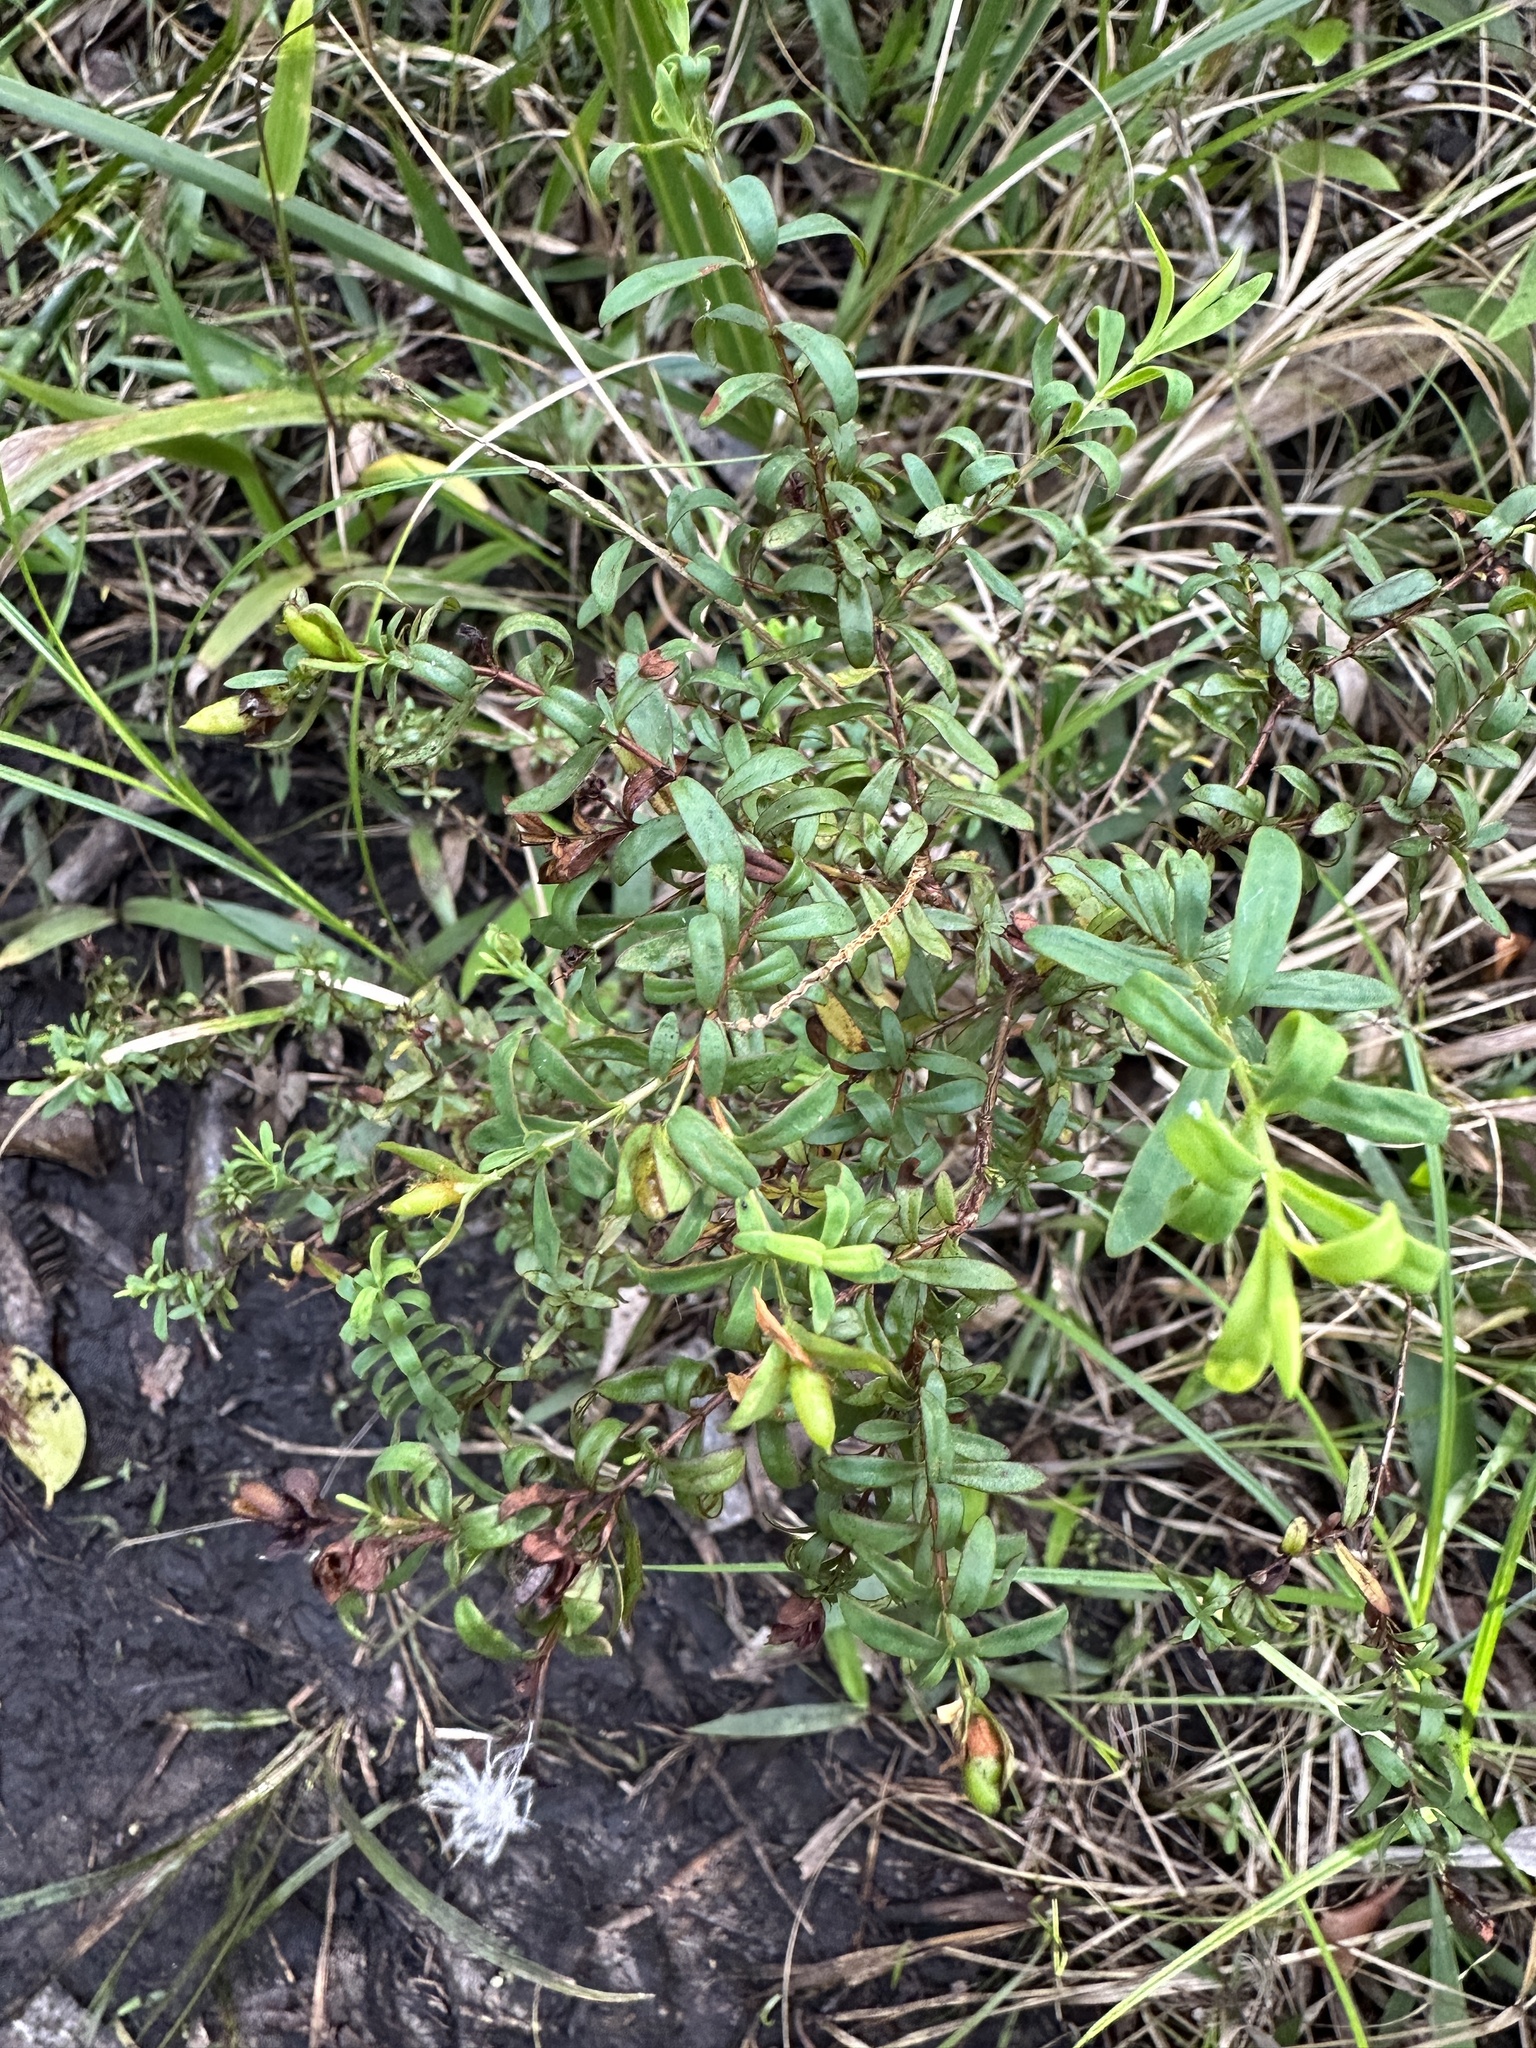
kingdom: Plantae
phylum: Tracheophyta
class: Magnoliopsida
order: Malpighiales
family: Hypericaceae
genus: Hypericum
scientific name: Hypericum hypericoides
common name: St. andrew's cross
